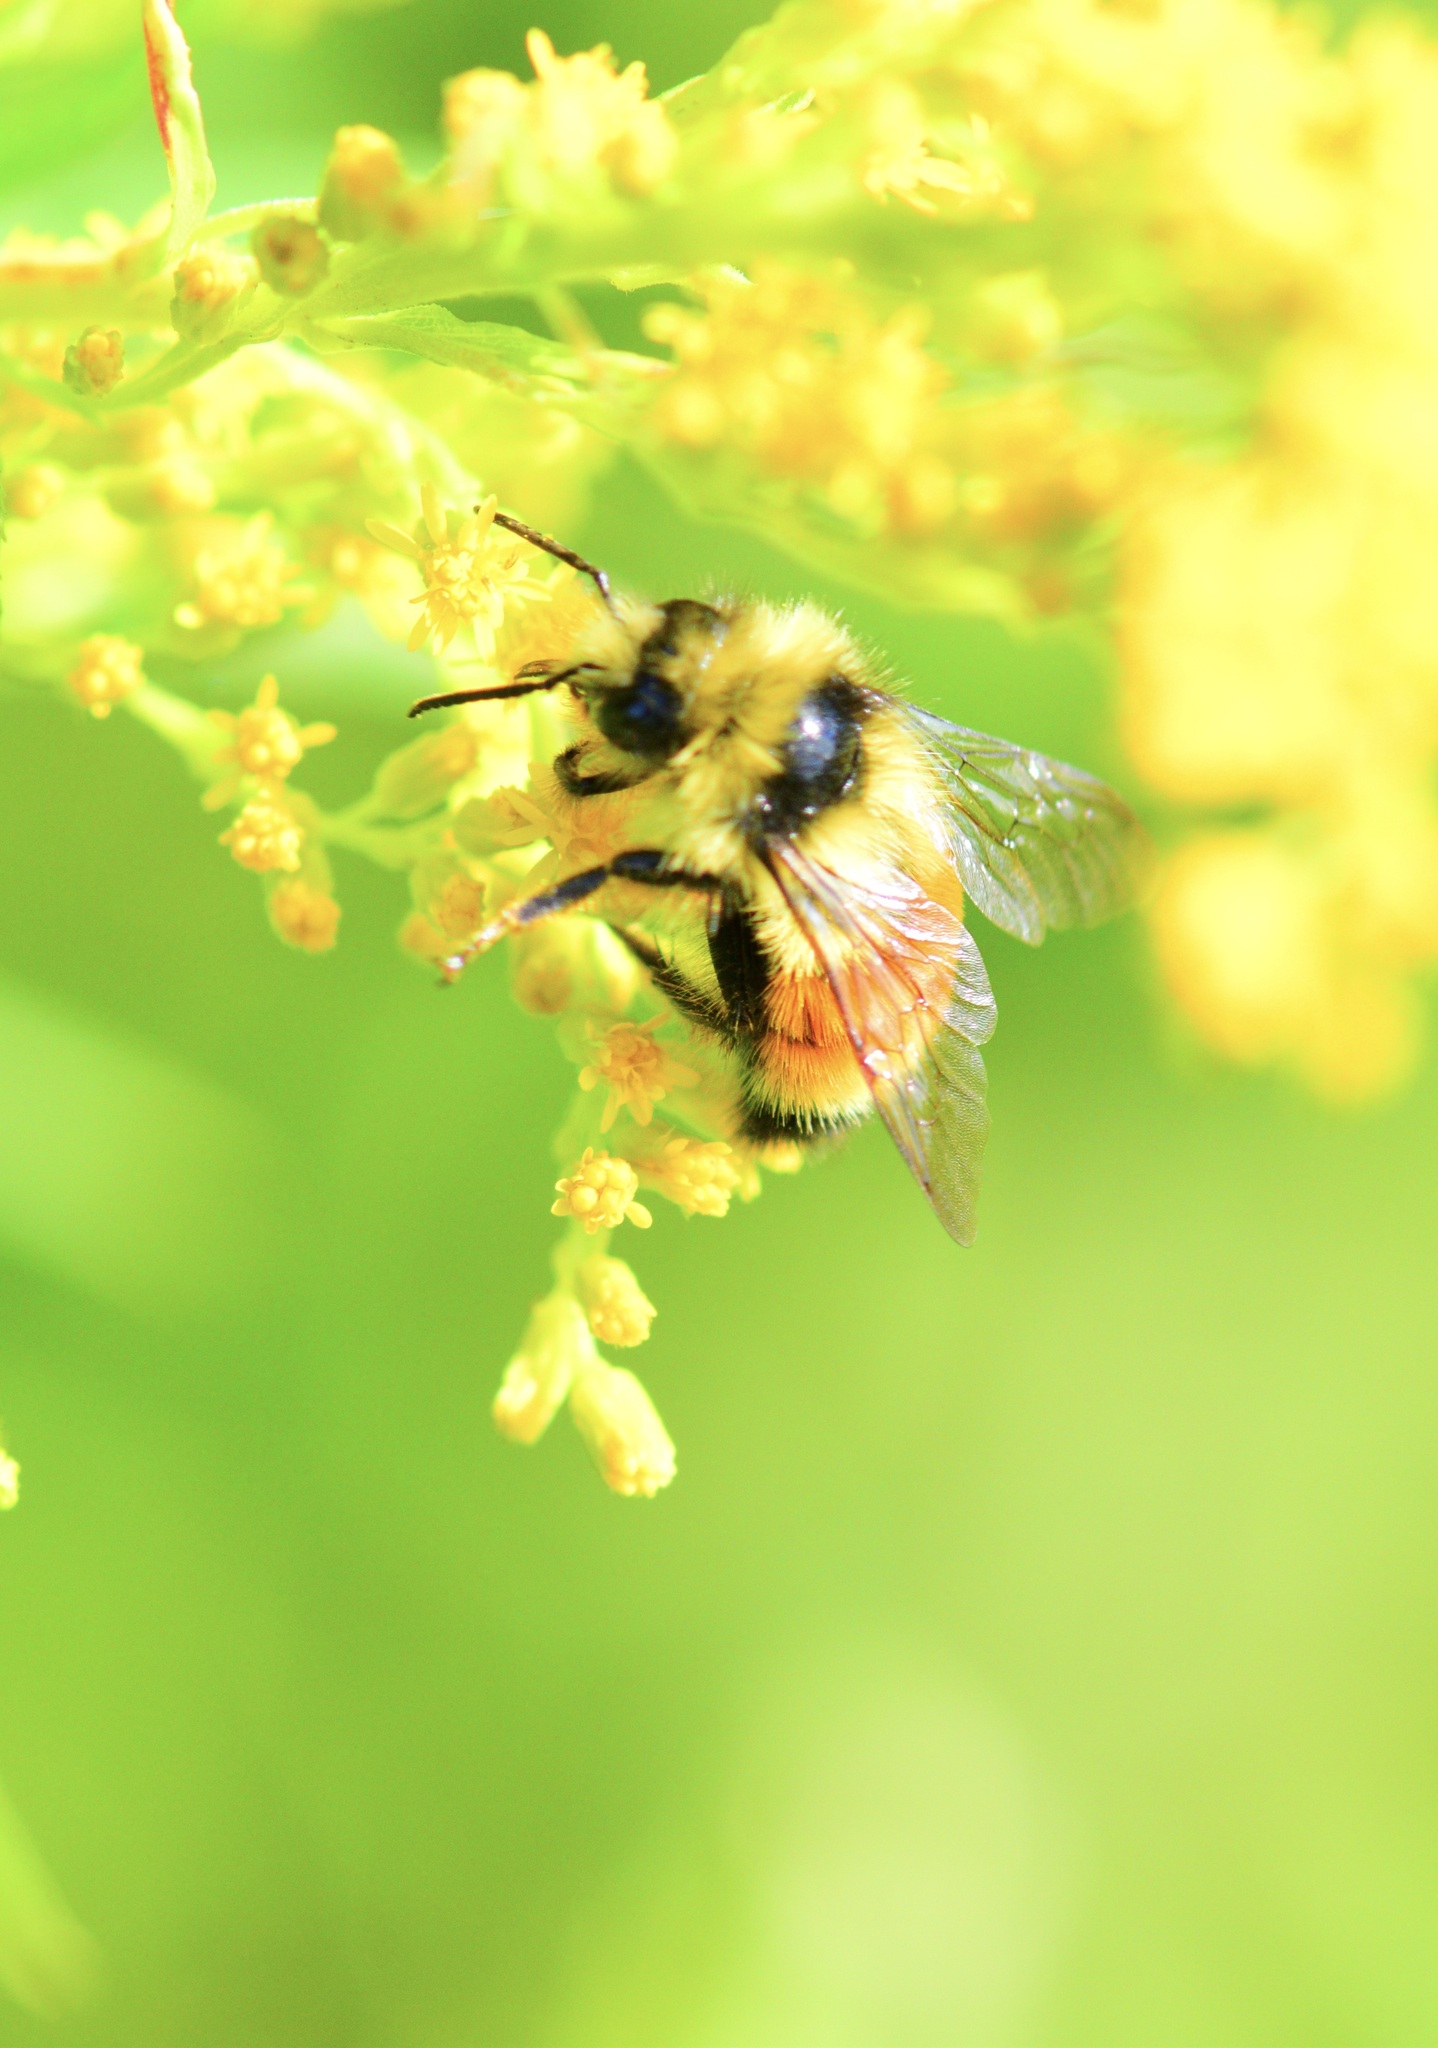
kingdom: Animalia
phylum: Arthropoda
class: Insecta
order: Hymenoptera
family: Apidae
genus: Bombus
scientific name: Bombus ternarius
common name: Tri-colored bumble bee
